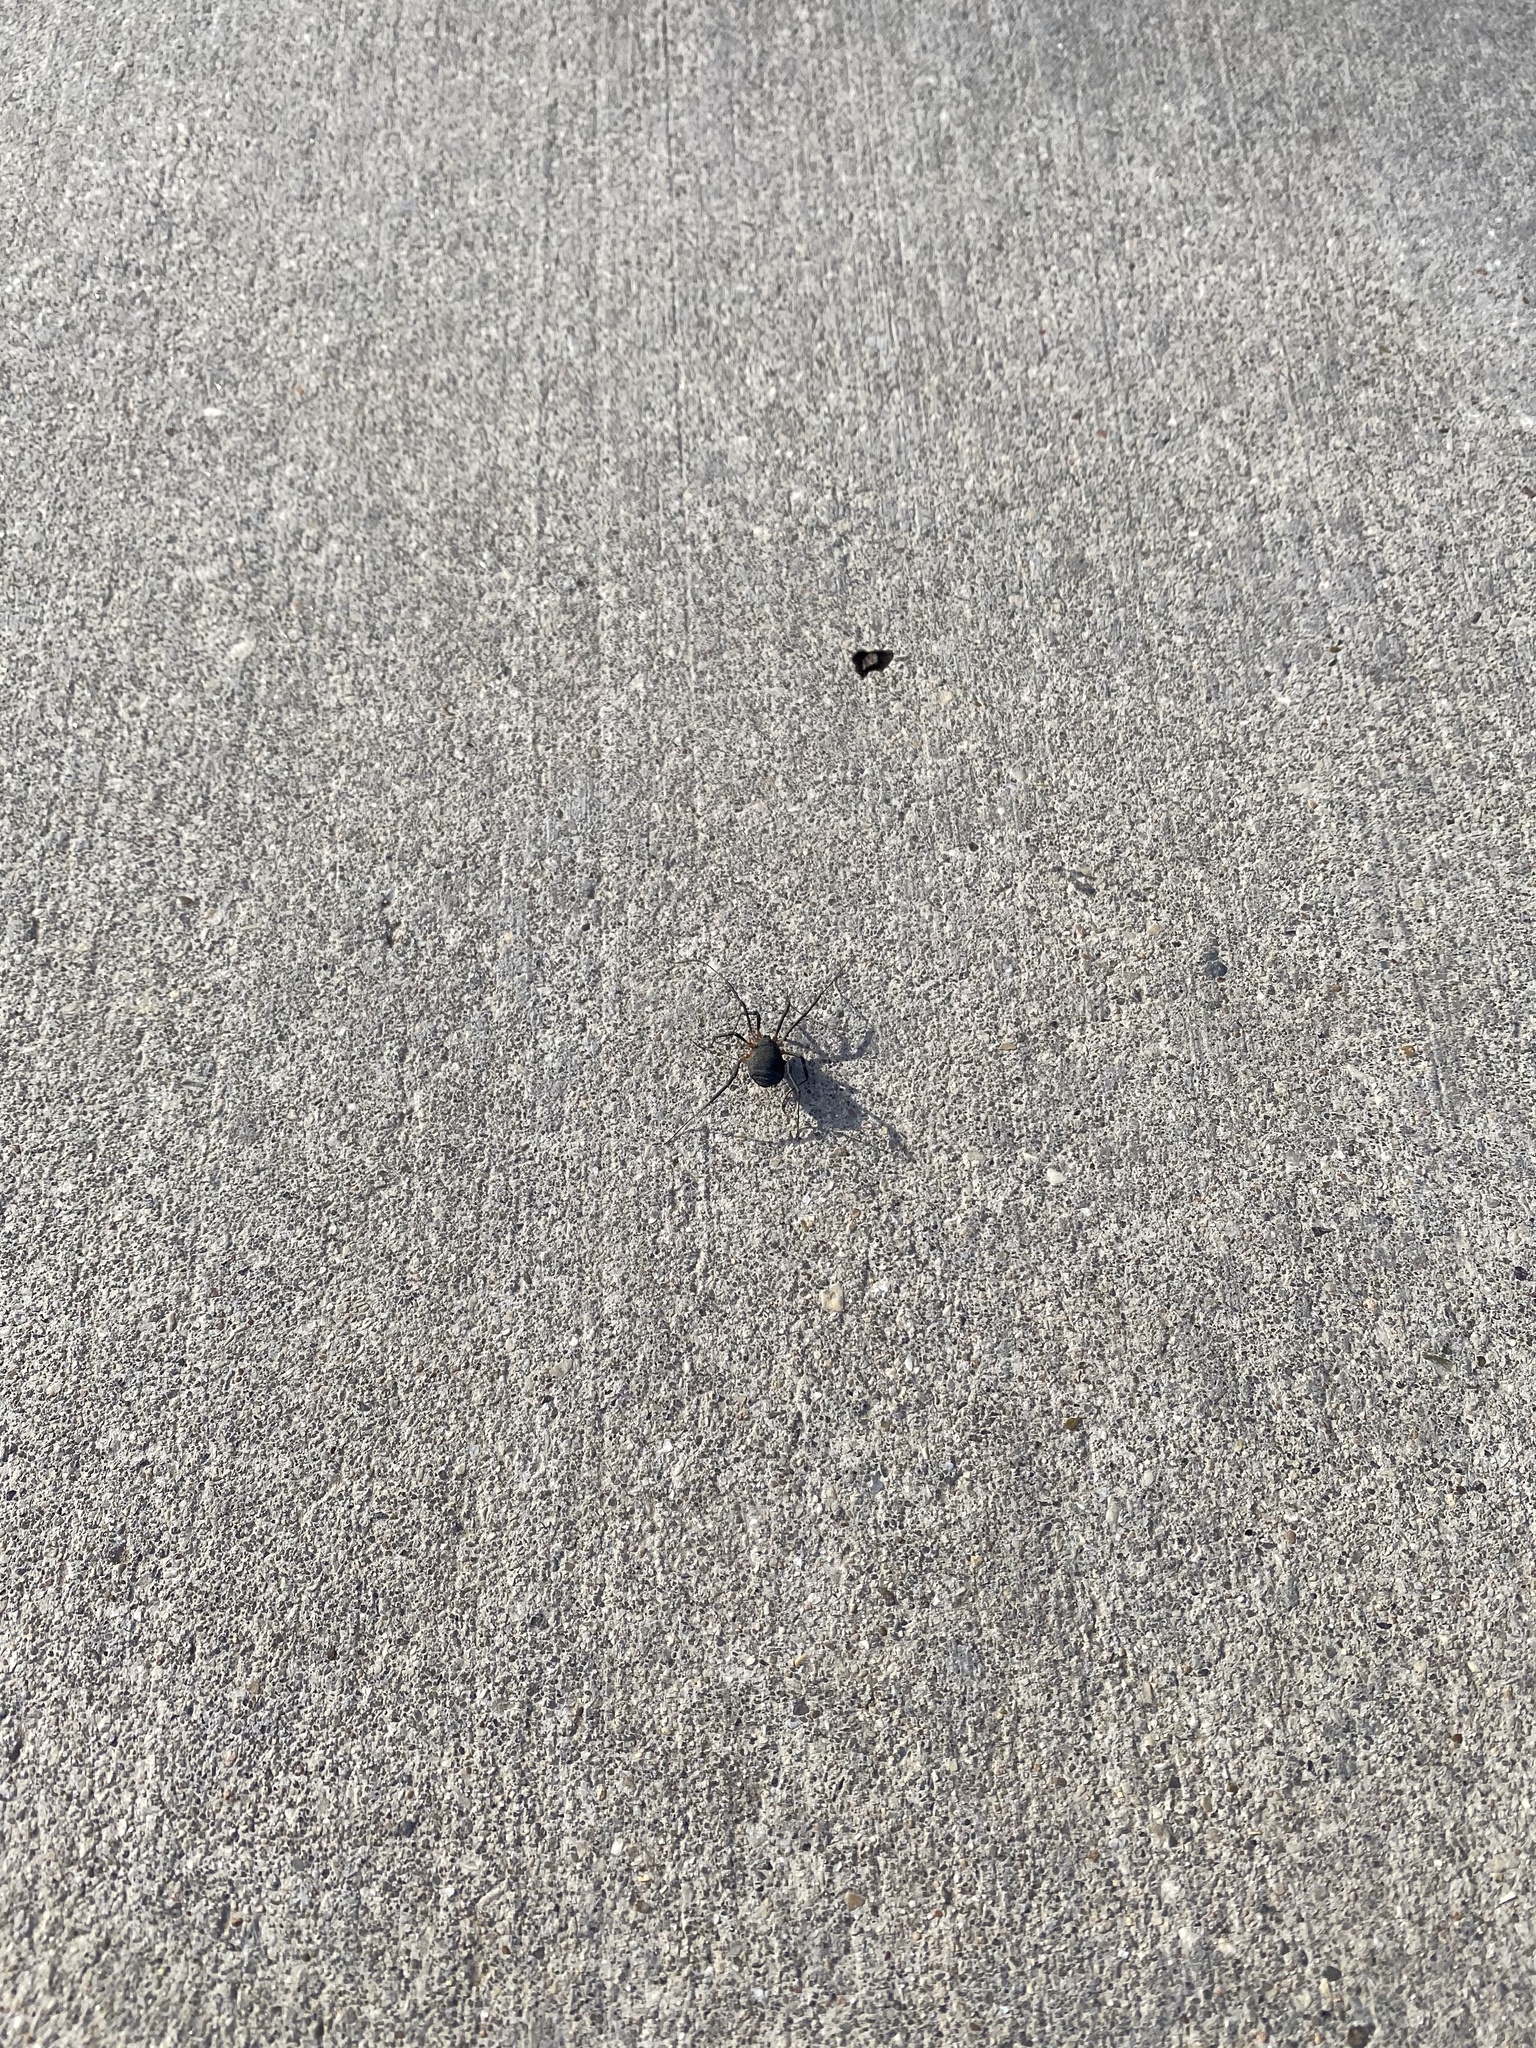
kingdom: Animalia
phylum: Arthropoda
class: Arachnida
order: Opiliones
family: Sclerosomatidae
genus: Eumesosoma
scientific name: Eumesosoma roeweri
